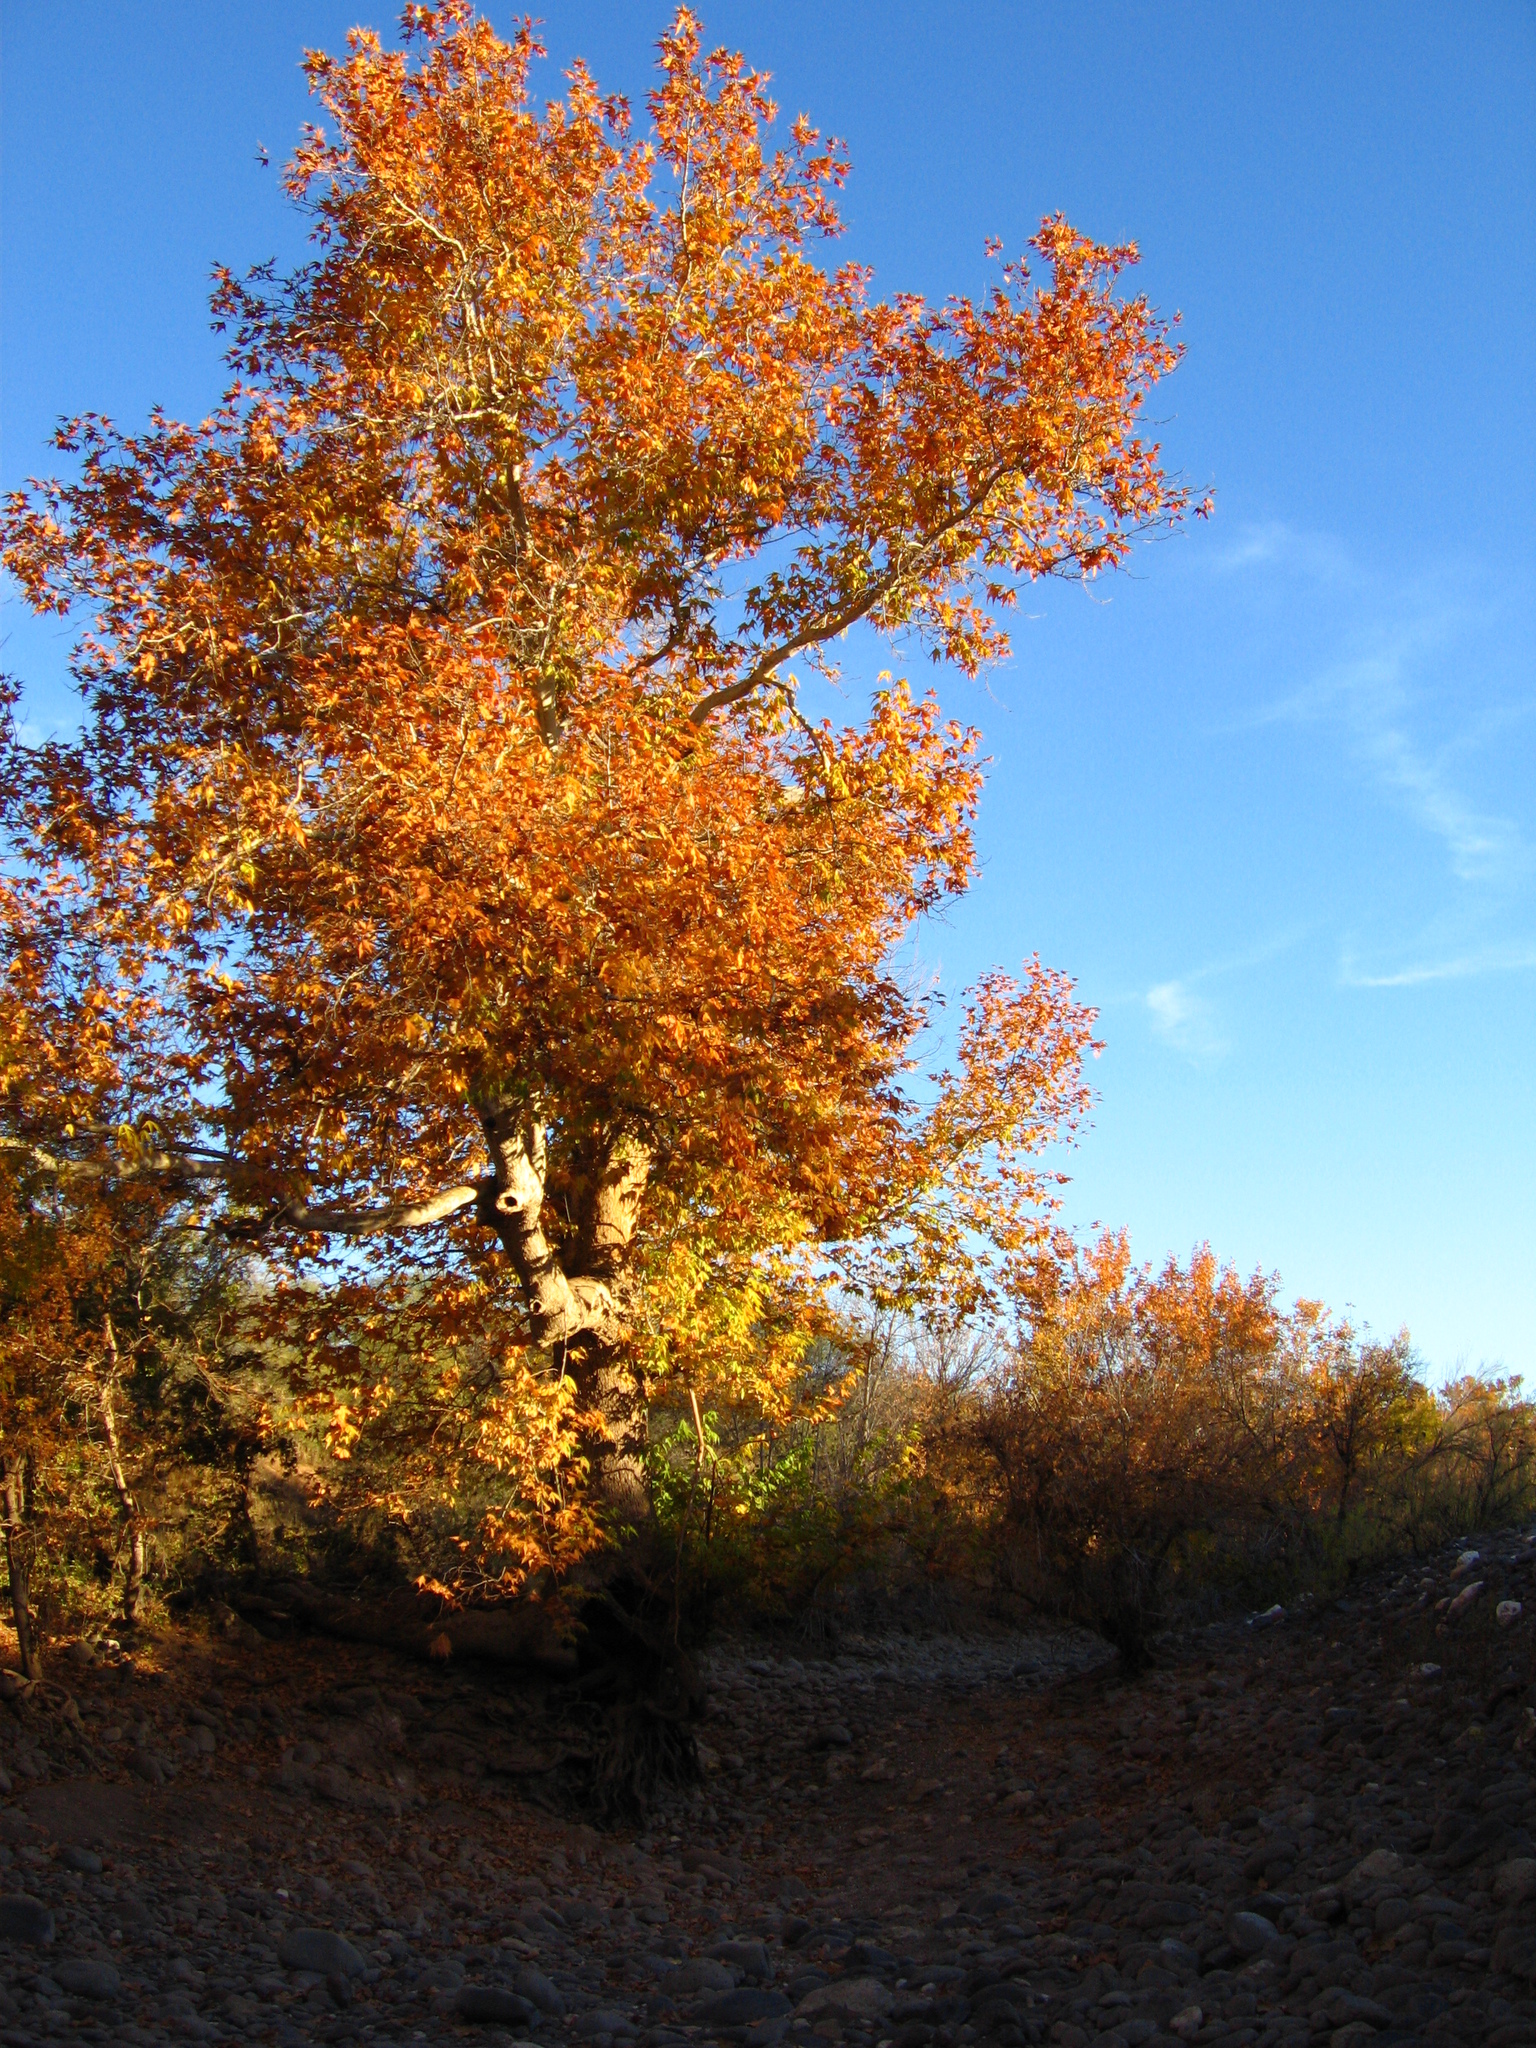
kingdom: Plantae
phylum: Tracheophyta
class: Magnoliopsida
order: Proteales
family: Platanaceae
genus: Platanus
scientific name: Platanus wrightii
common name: Arizona sycamore
